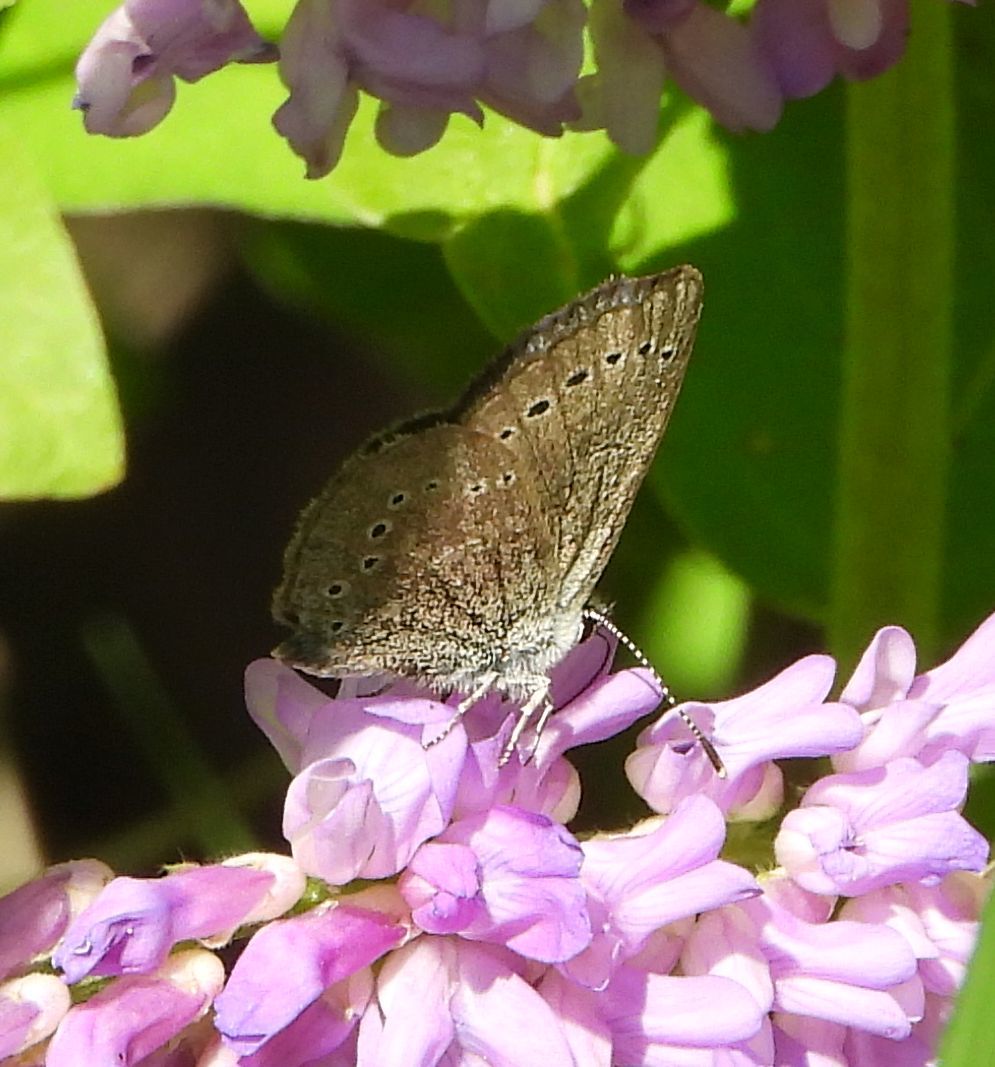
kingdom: Animalia
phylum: Arthropoda
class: Insecta
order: Lepidoptera
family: Lycaenidae
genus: Glaucopsyche
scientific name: Glaucopsyche lygdamus
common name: Silvery blue
